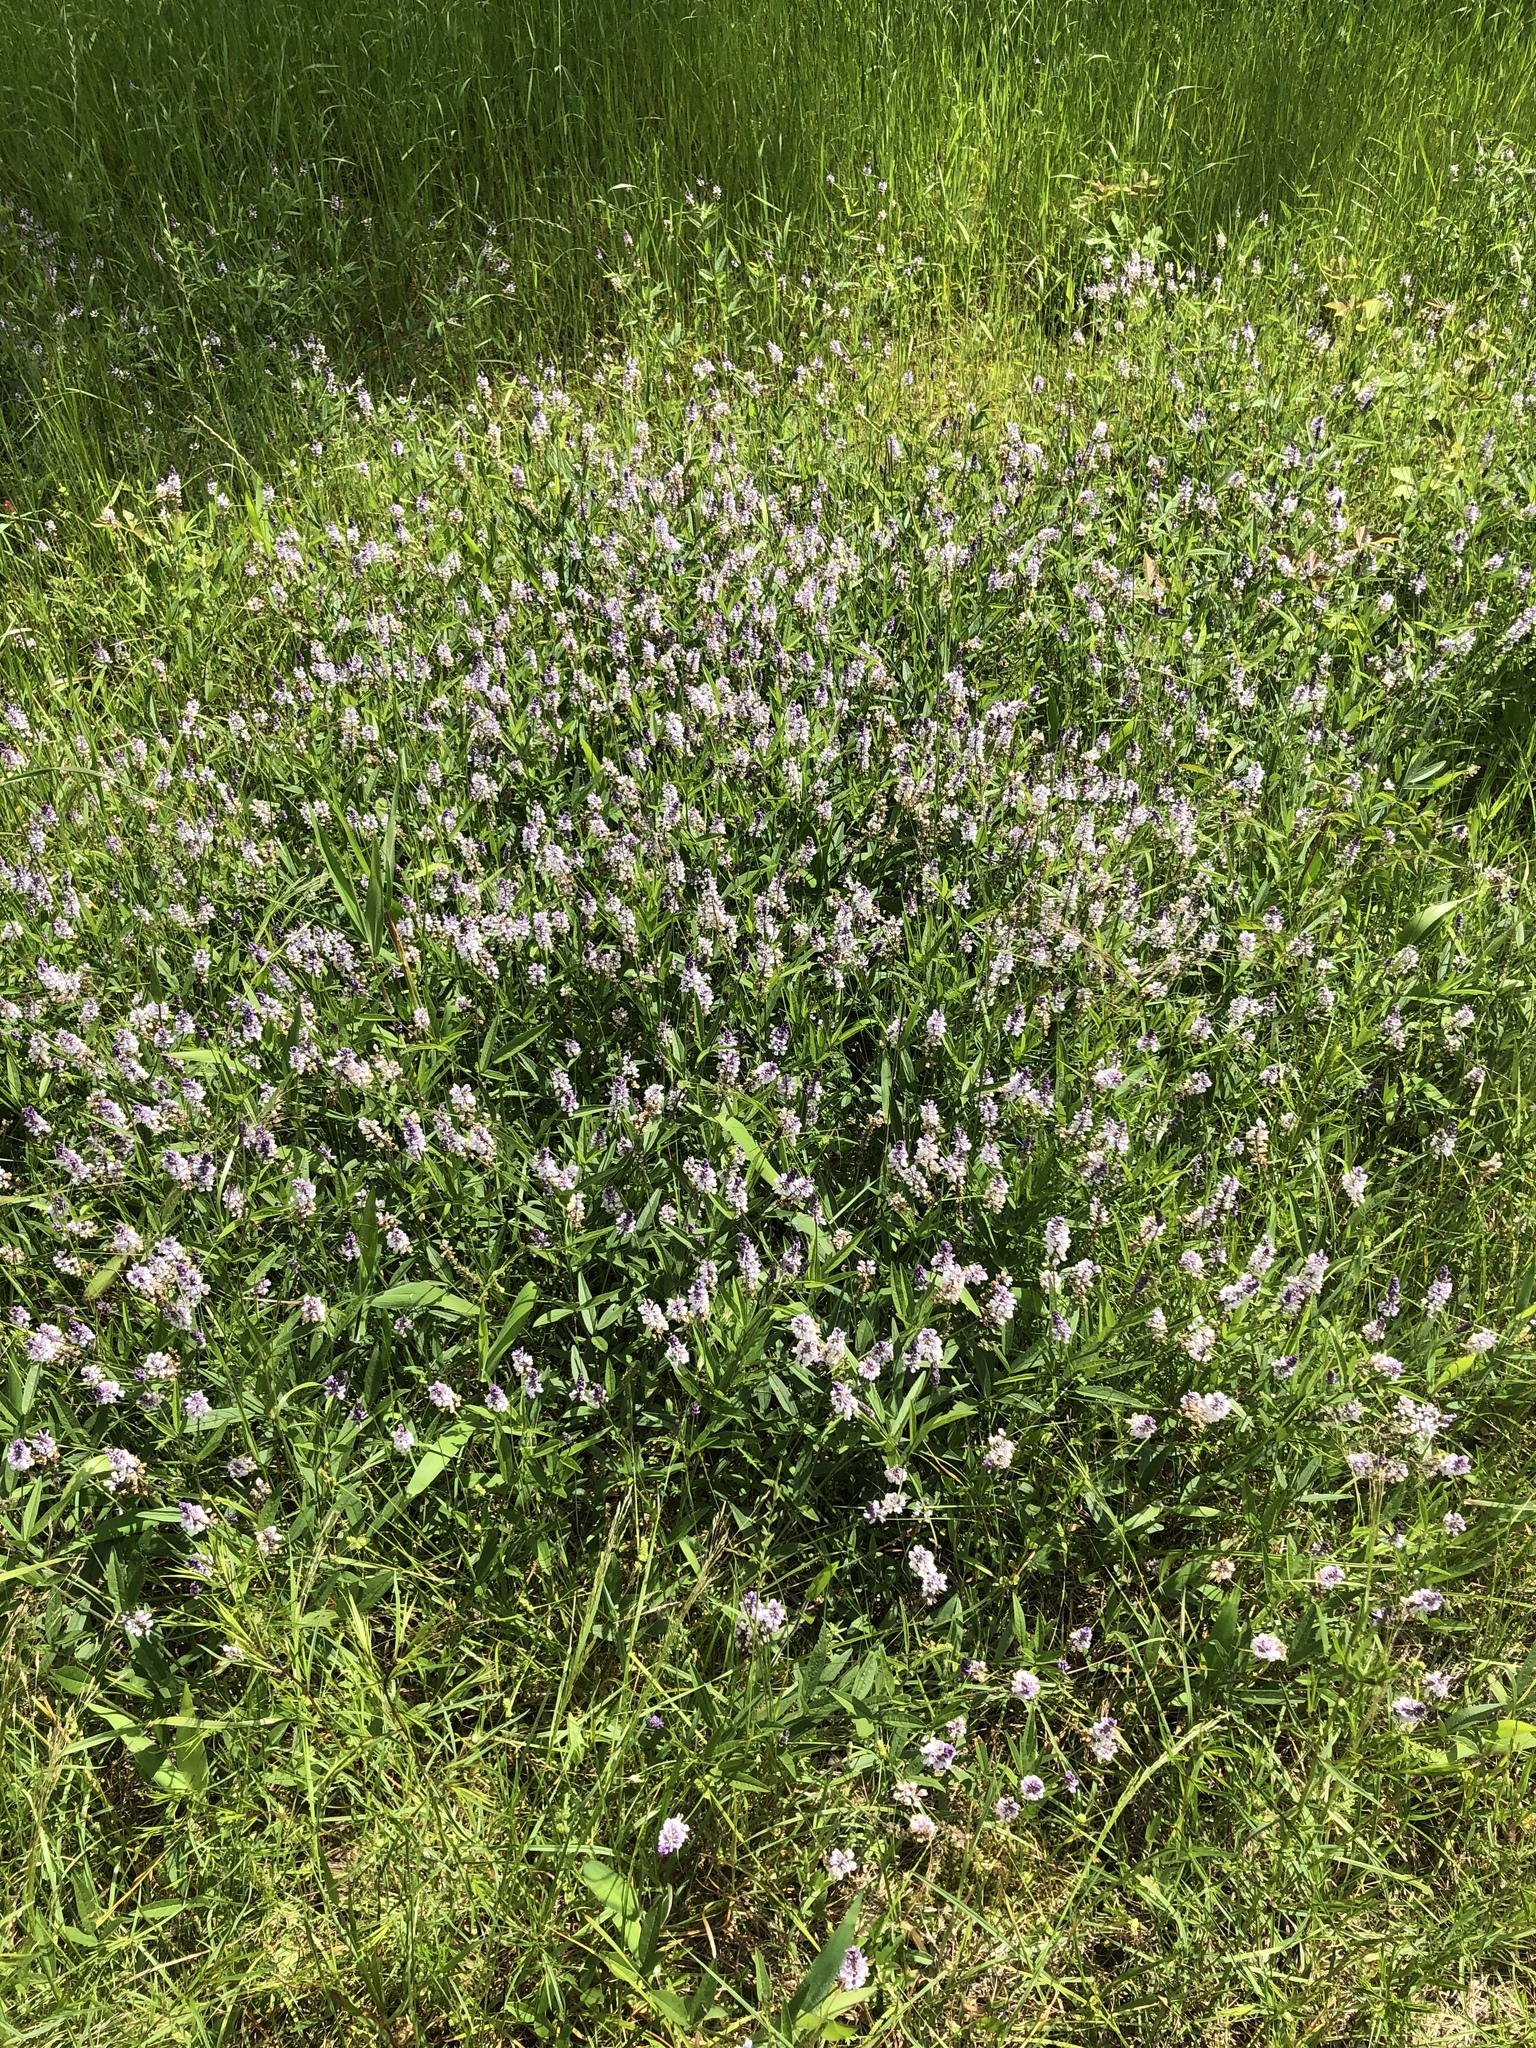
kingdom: Plantae
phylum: Tracheophyta
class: Magnoliopsida
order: Fabales
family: Fabaceae
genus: Orbexilum
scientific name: Orbexilum pedunculatum
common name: Sampson's snakeroot
